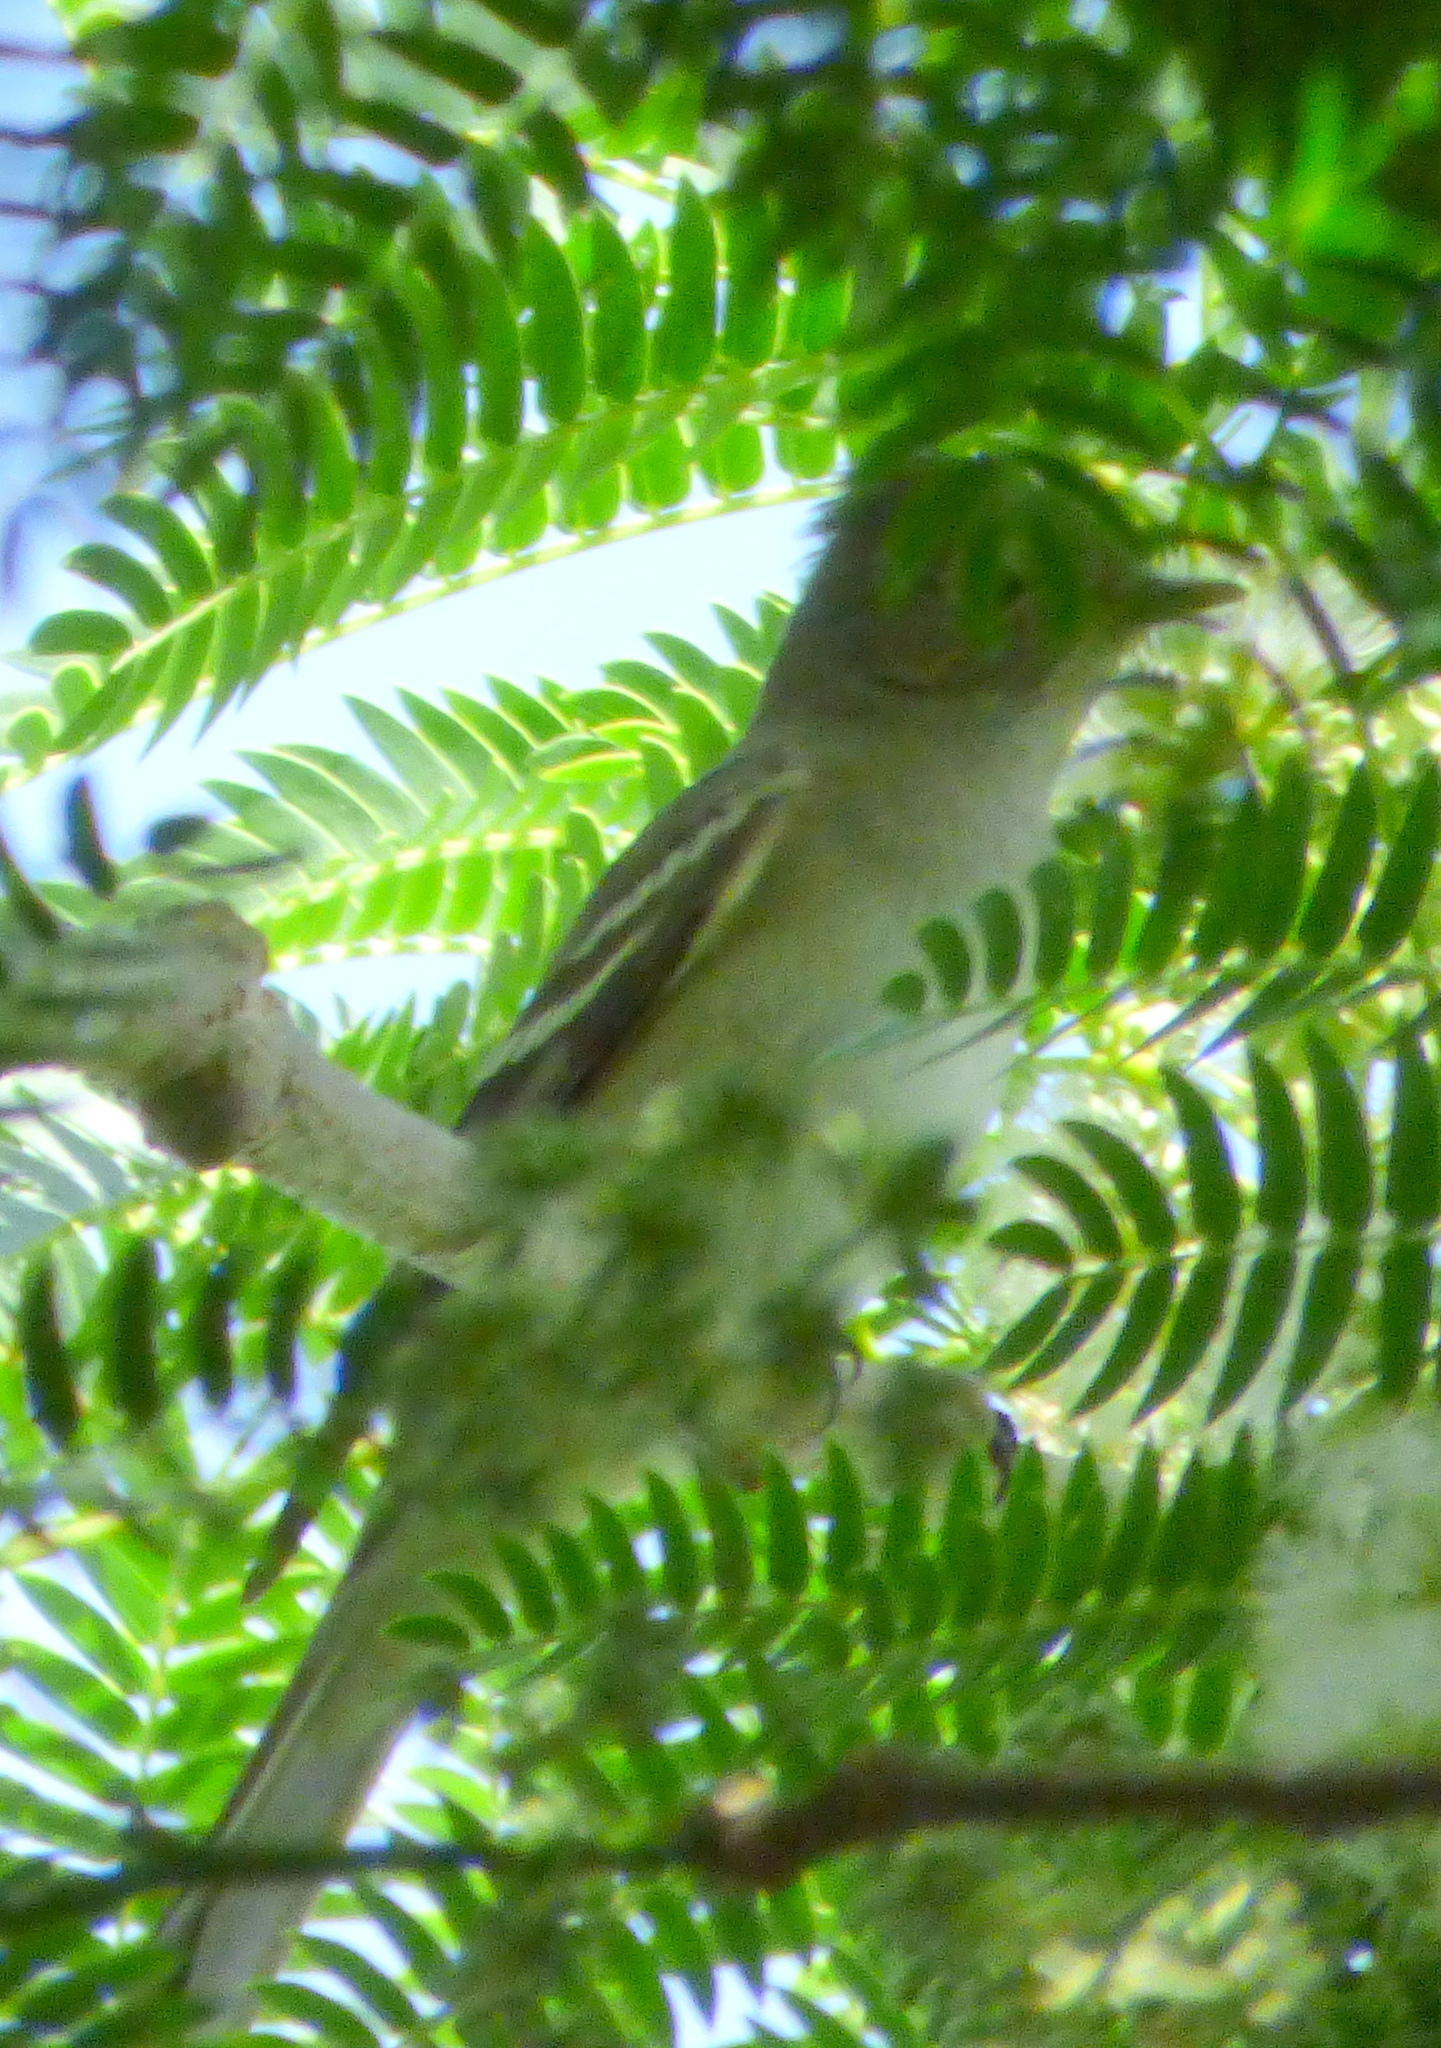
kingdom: Animalia
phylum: Chordata
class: Aves
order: Passeriformes
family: Tyrannidae
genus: Elaenia
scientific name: Elaenia parvirostris
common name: Small-billed elaenia
